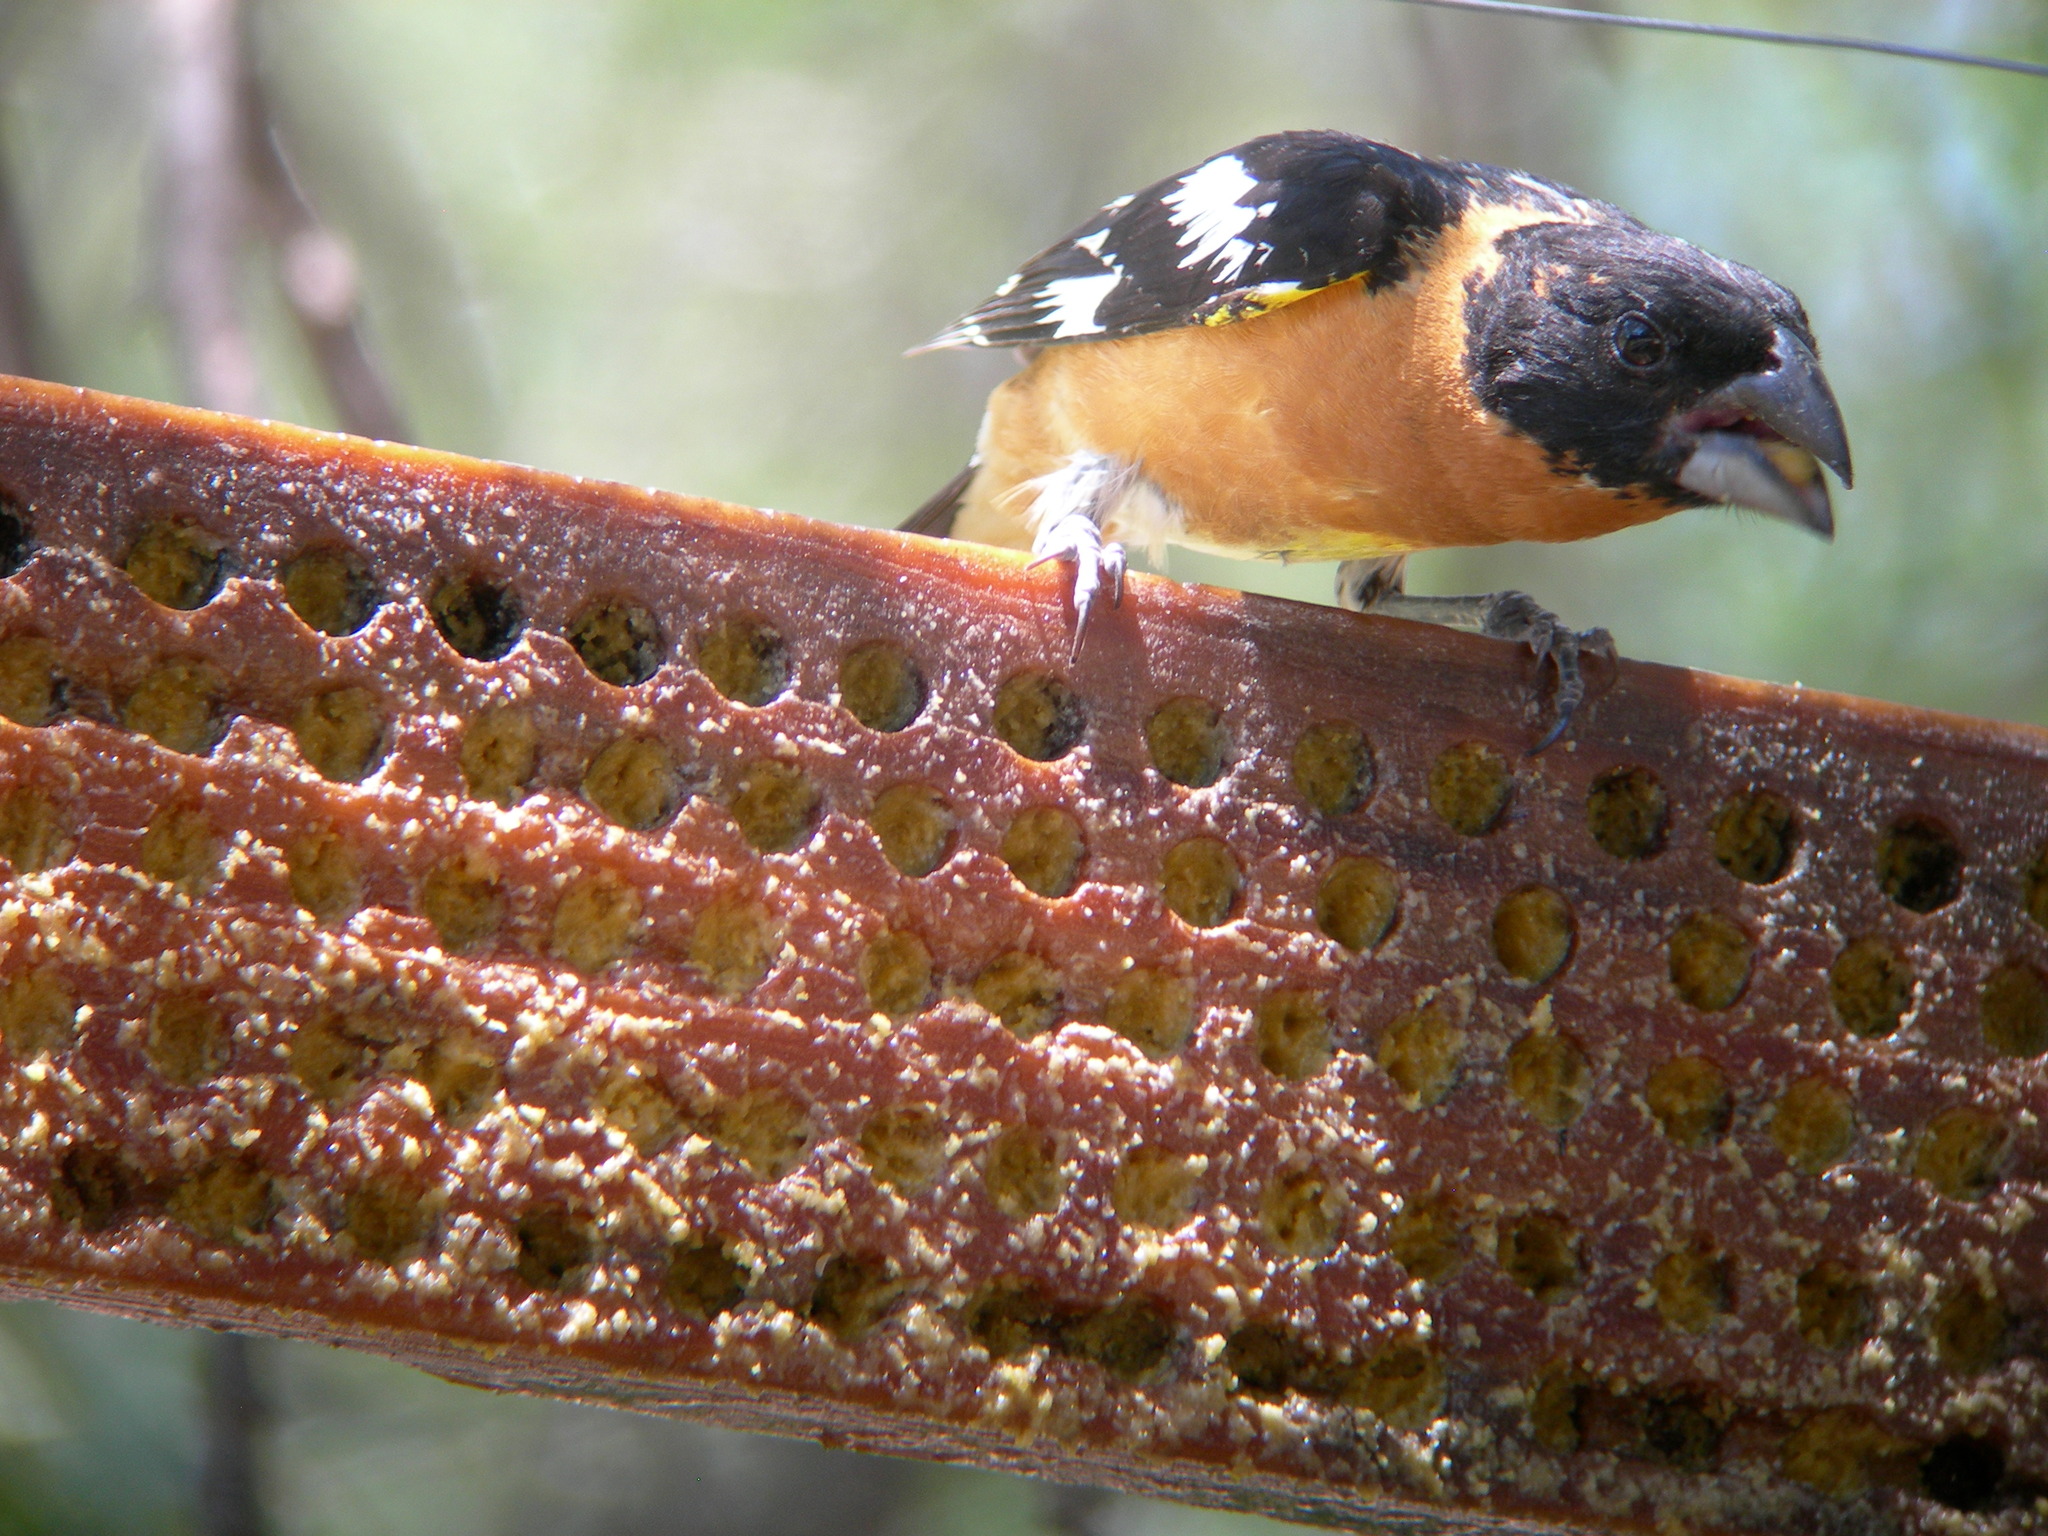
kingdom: Animalia
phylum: Chordata
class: Aves
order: Passeriformes
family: Cardinalidae
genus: Pheucticus
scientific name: Pheucticus melanocephalus
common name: Black-headed grosbeak
